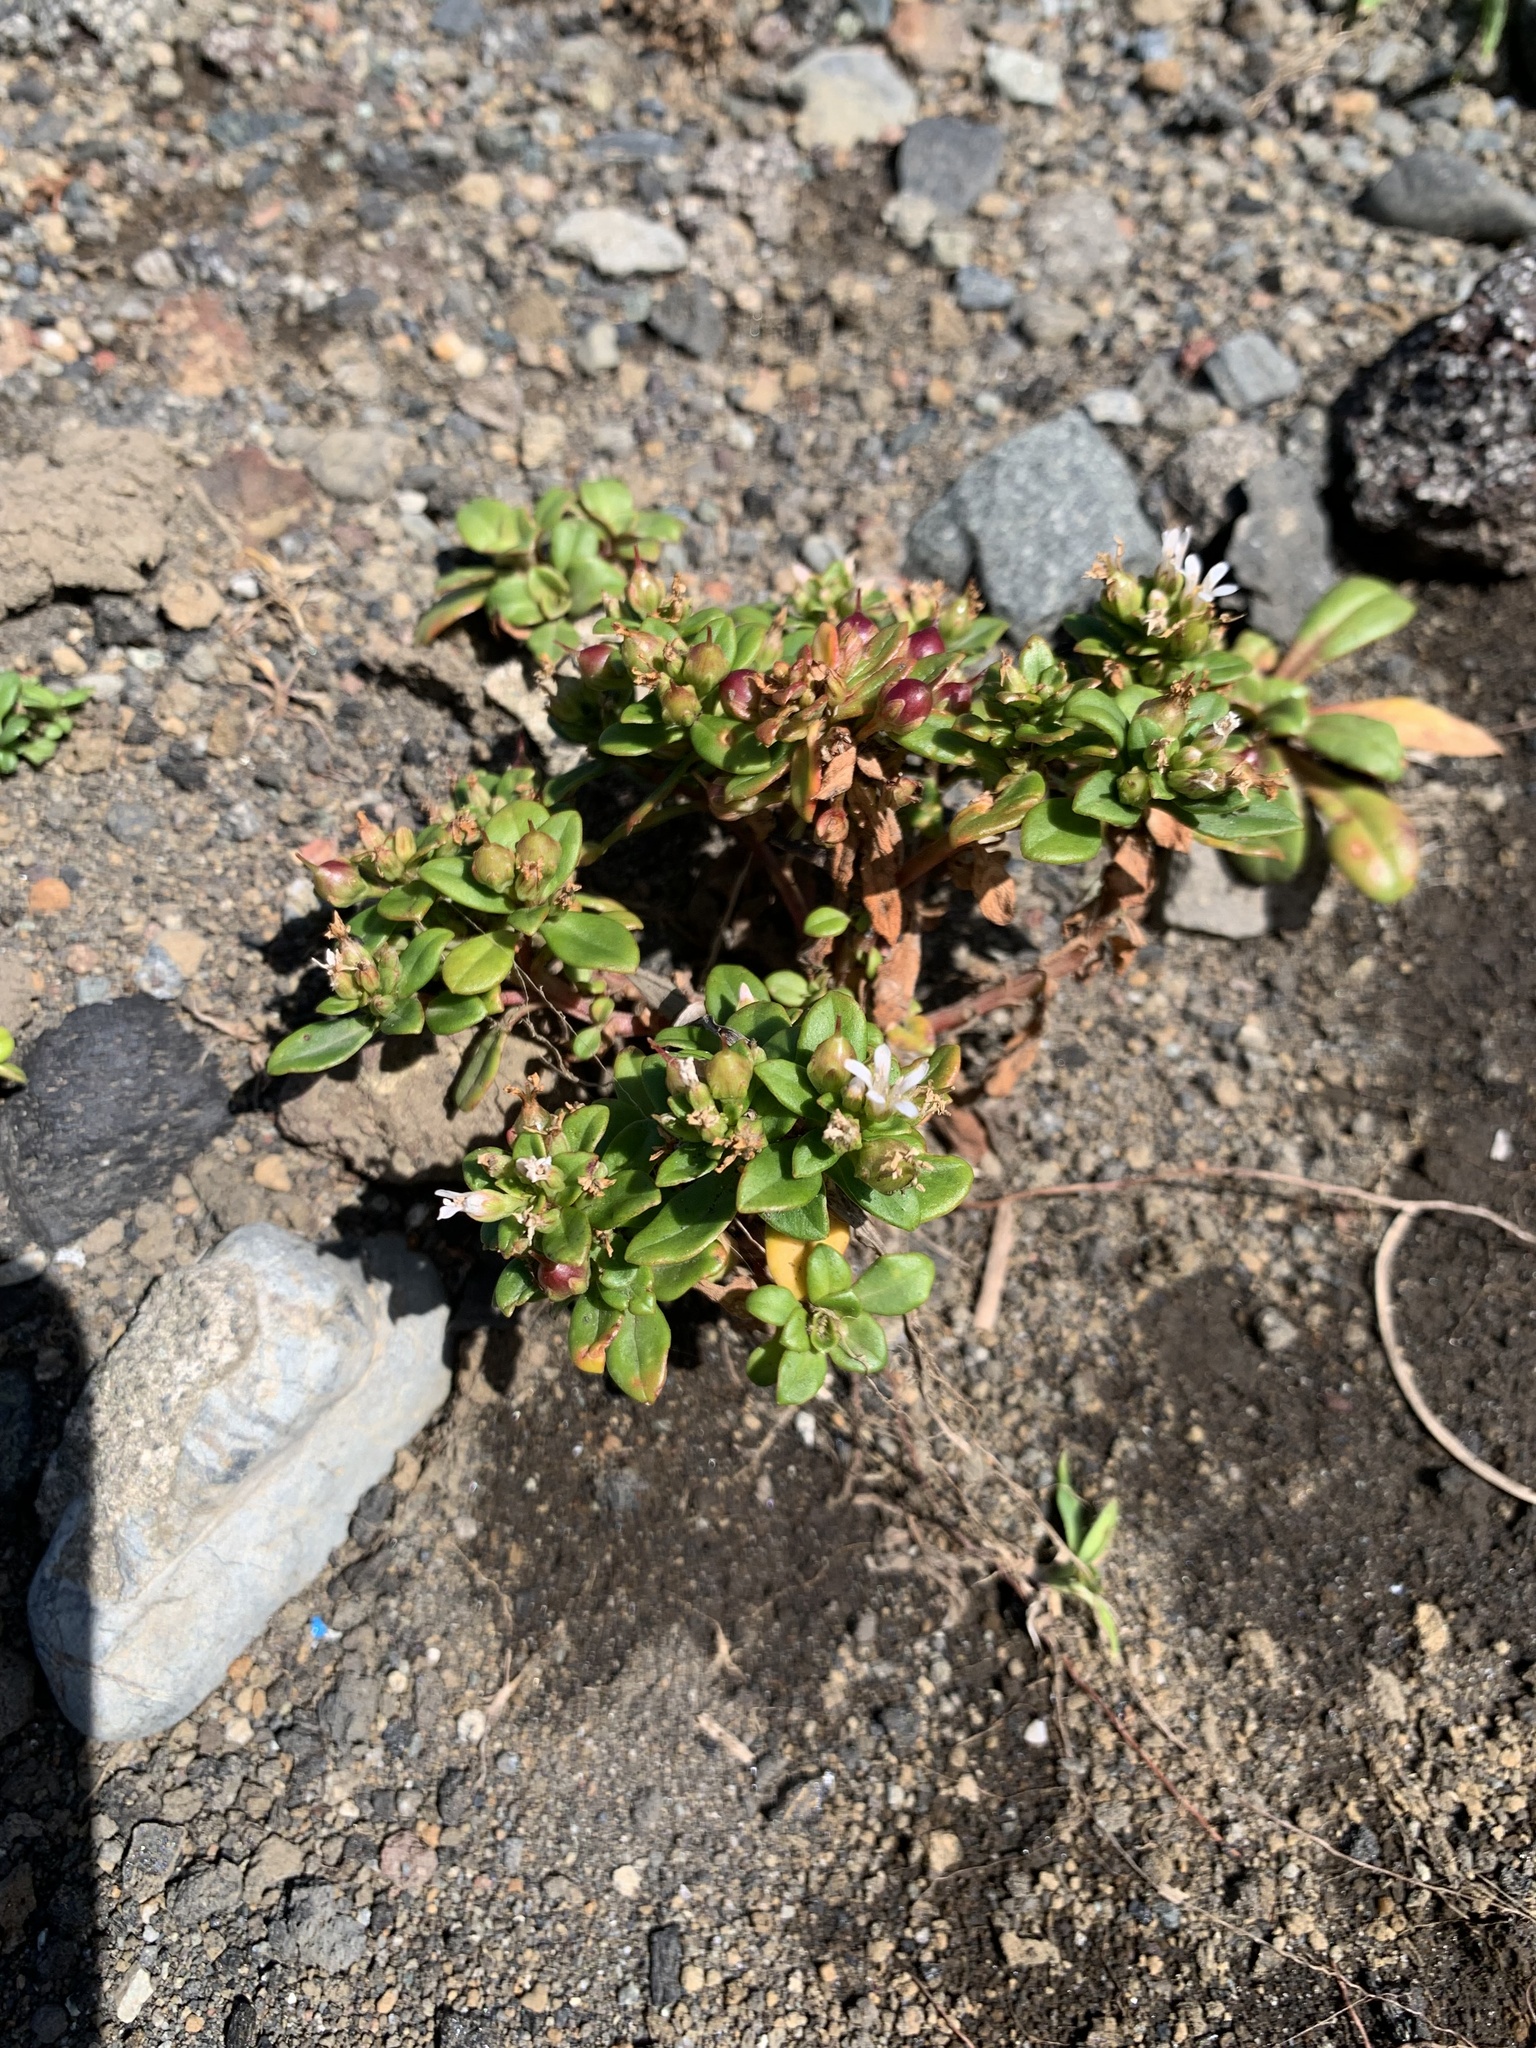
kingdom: Plantae
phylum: Tracheophyta
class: Magnoliopsida
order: Ericales
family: Primulaceae
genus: Lysimachia
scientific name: Lysimachia mauritiana
